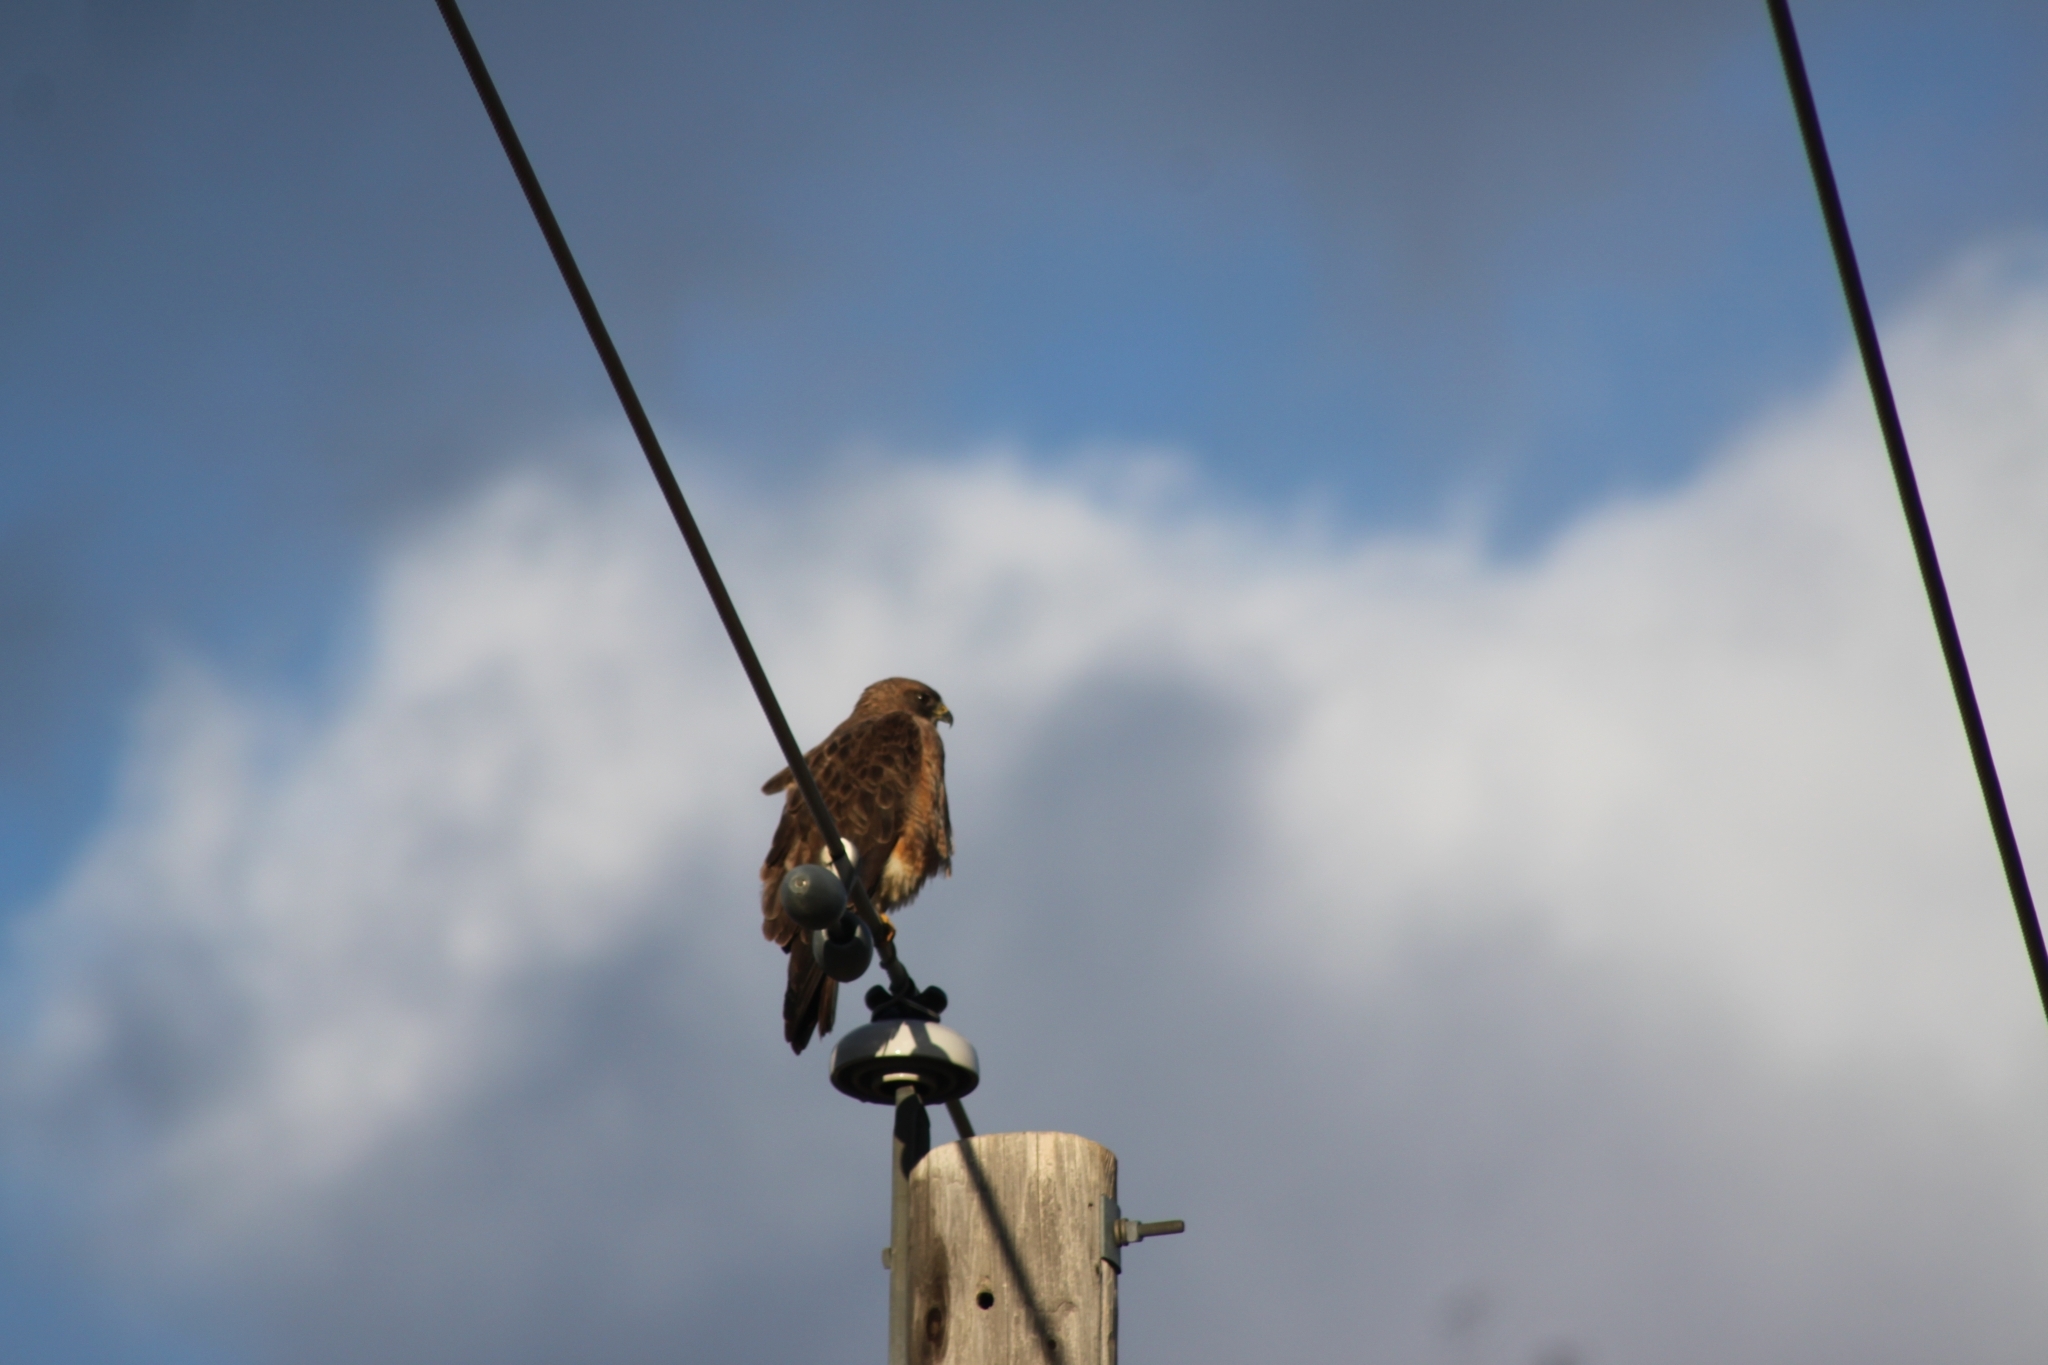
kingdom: Animalia
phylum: Chordata
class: Aves
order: Accipitriformes
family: Accipitridae
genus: Buteo
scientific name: Buteo swainsoni
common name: Swainson's hawk
